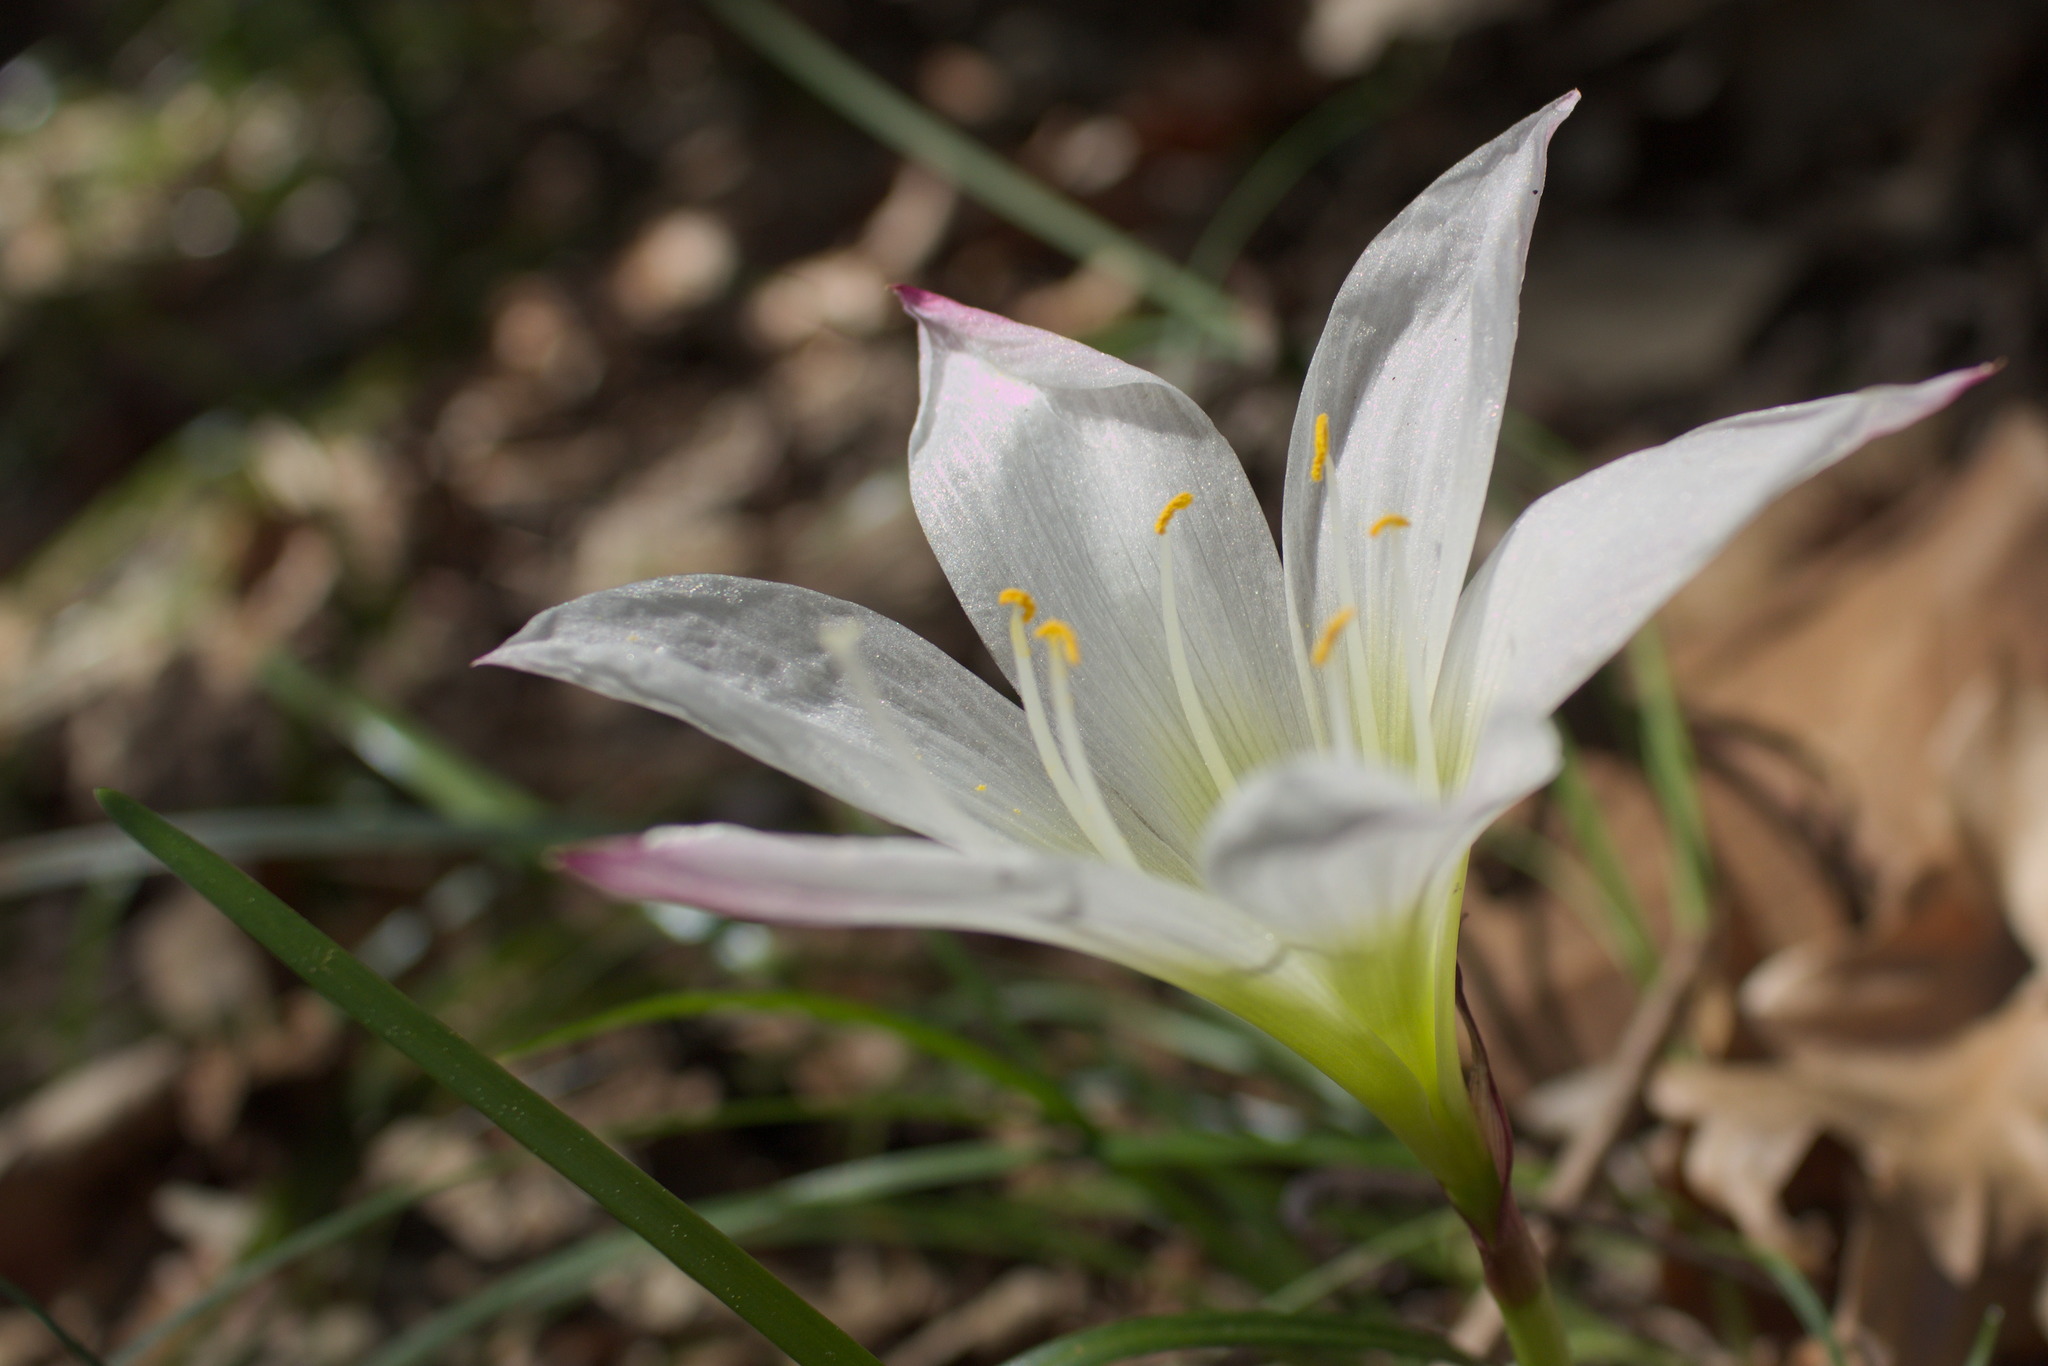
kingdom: Plantae
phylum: Tracheophyta
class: Liliopsida
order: Asparagales
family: Amaryllidaceae
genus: Zephyranthes
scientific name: Zephyranthes atamasco
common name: Atamasco lily
